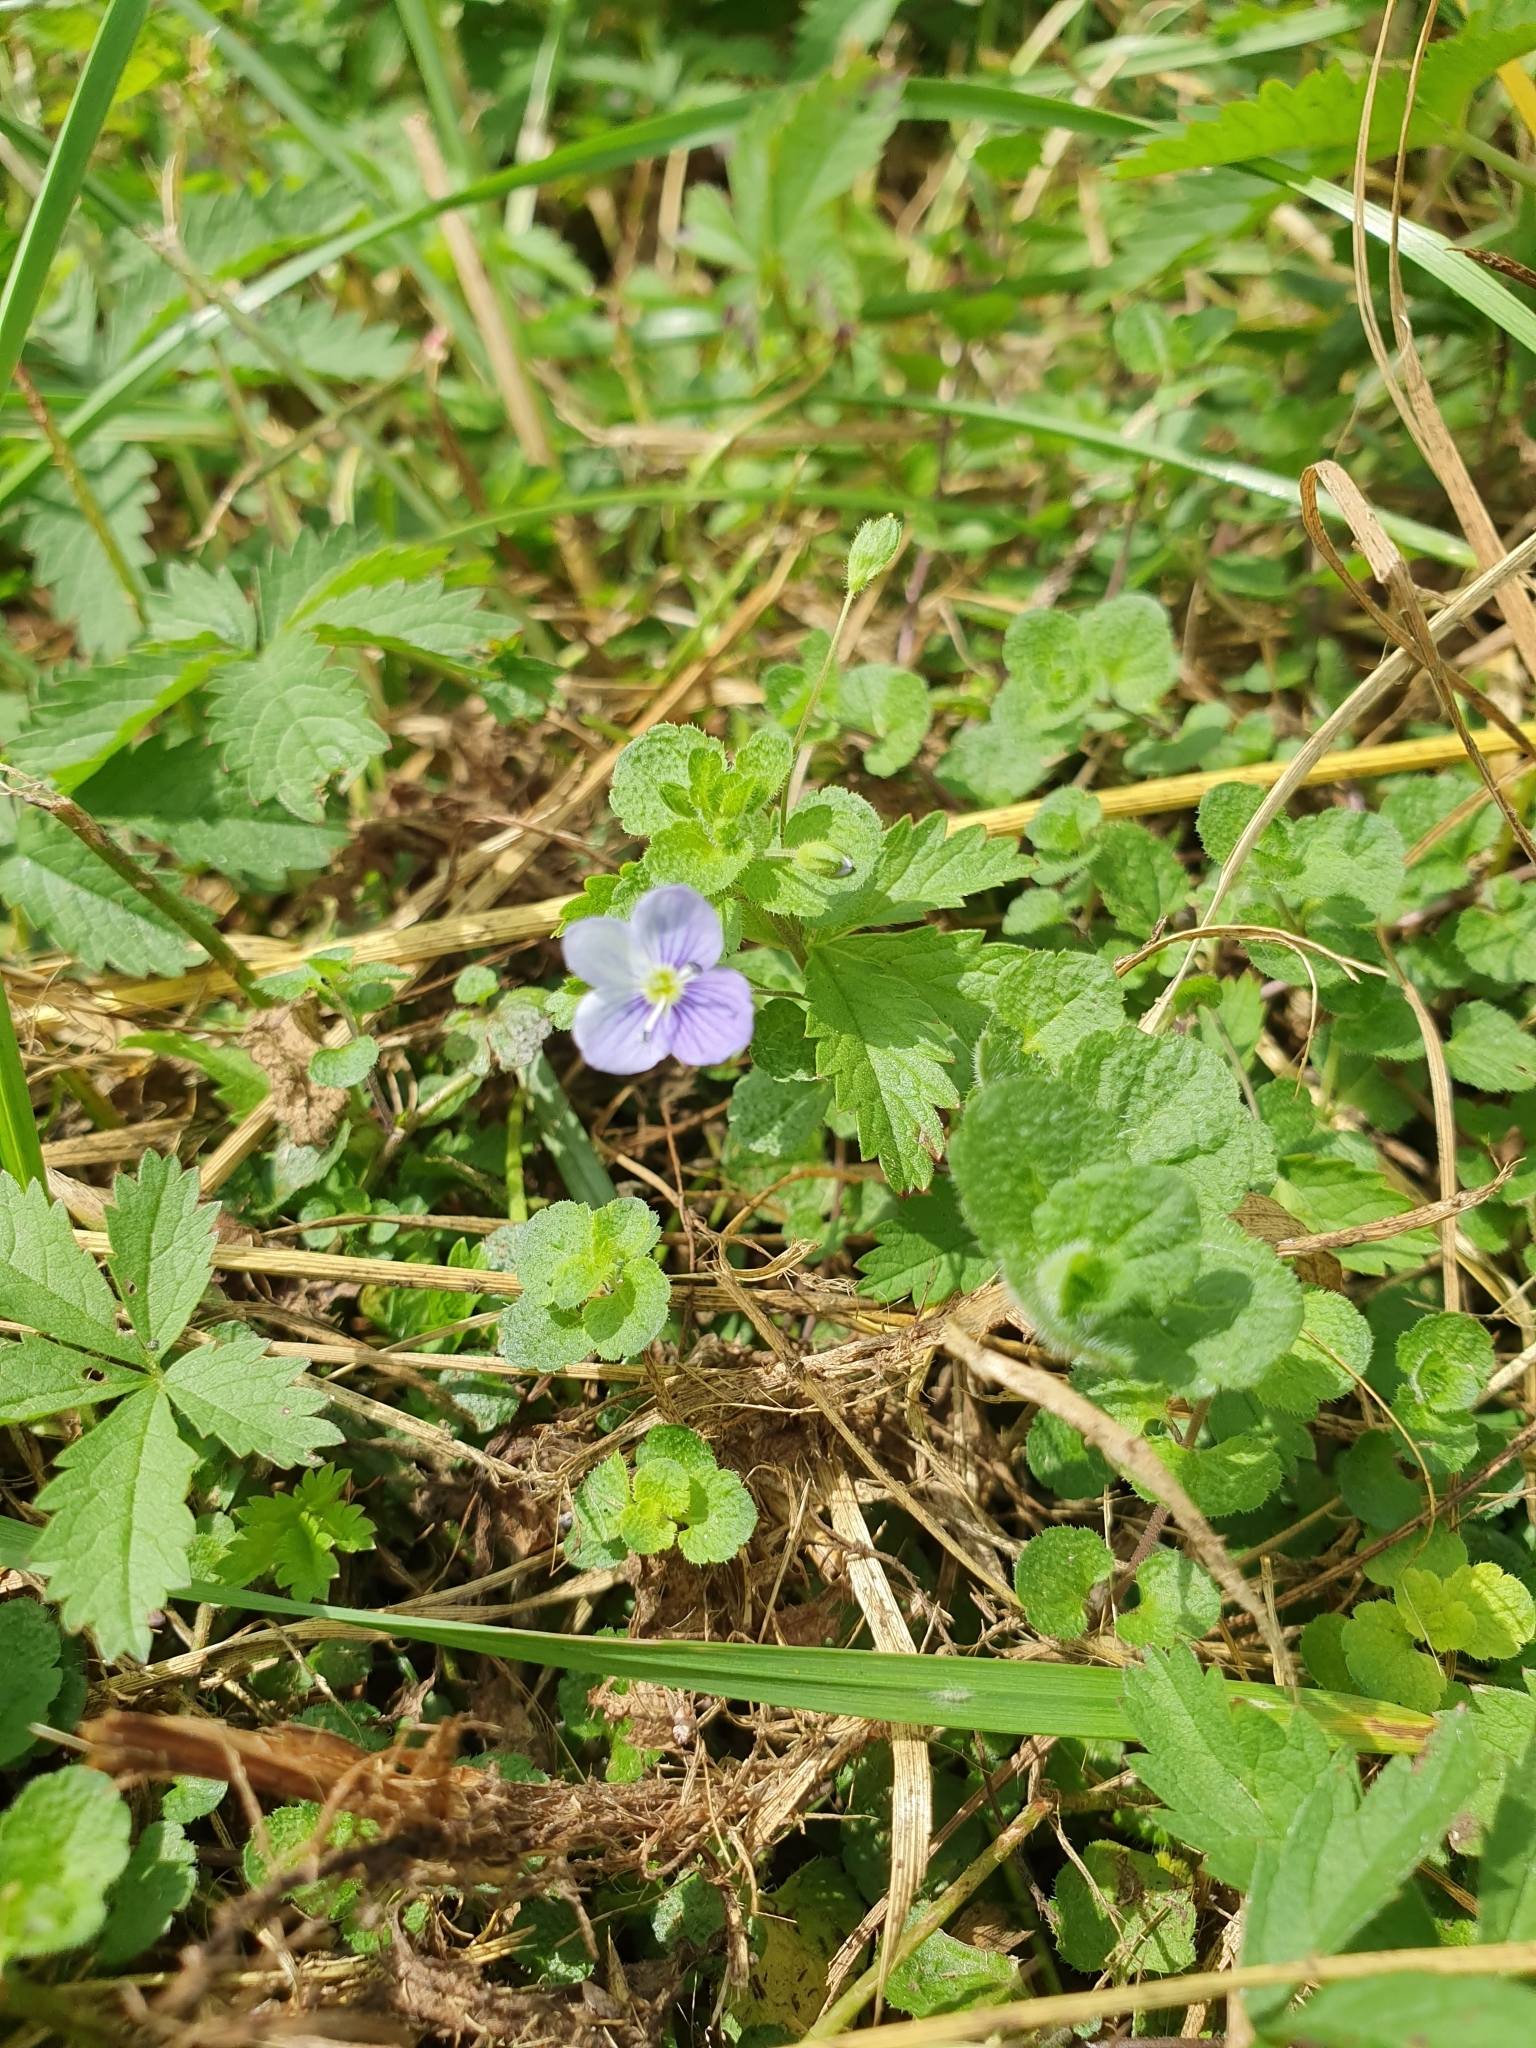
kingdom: Plantae
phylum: Tracheophyta
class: Magnoliopsida
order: Lamiales
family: Plantaginaceae
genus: Veronica
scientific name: Veronica filiformis
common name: Slender speedwell
